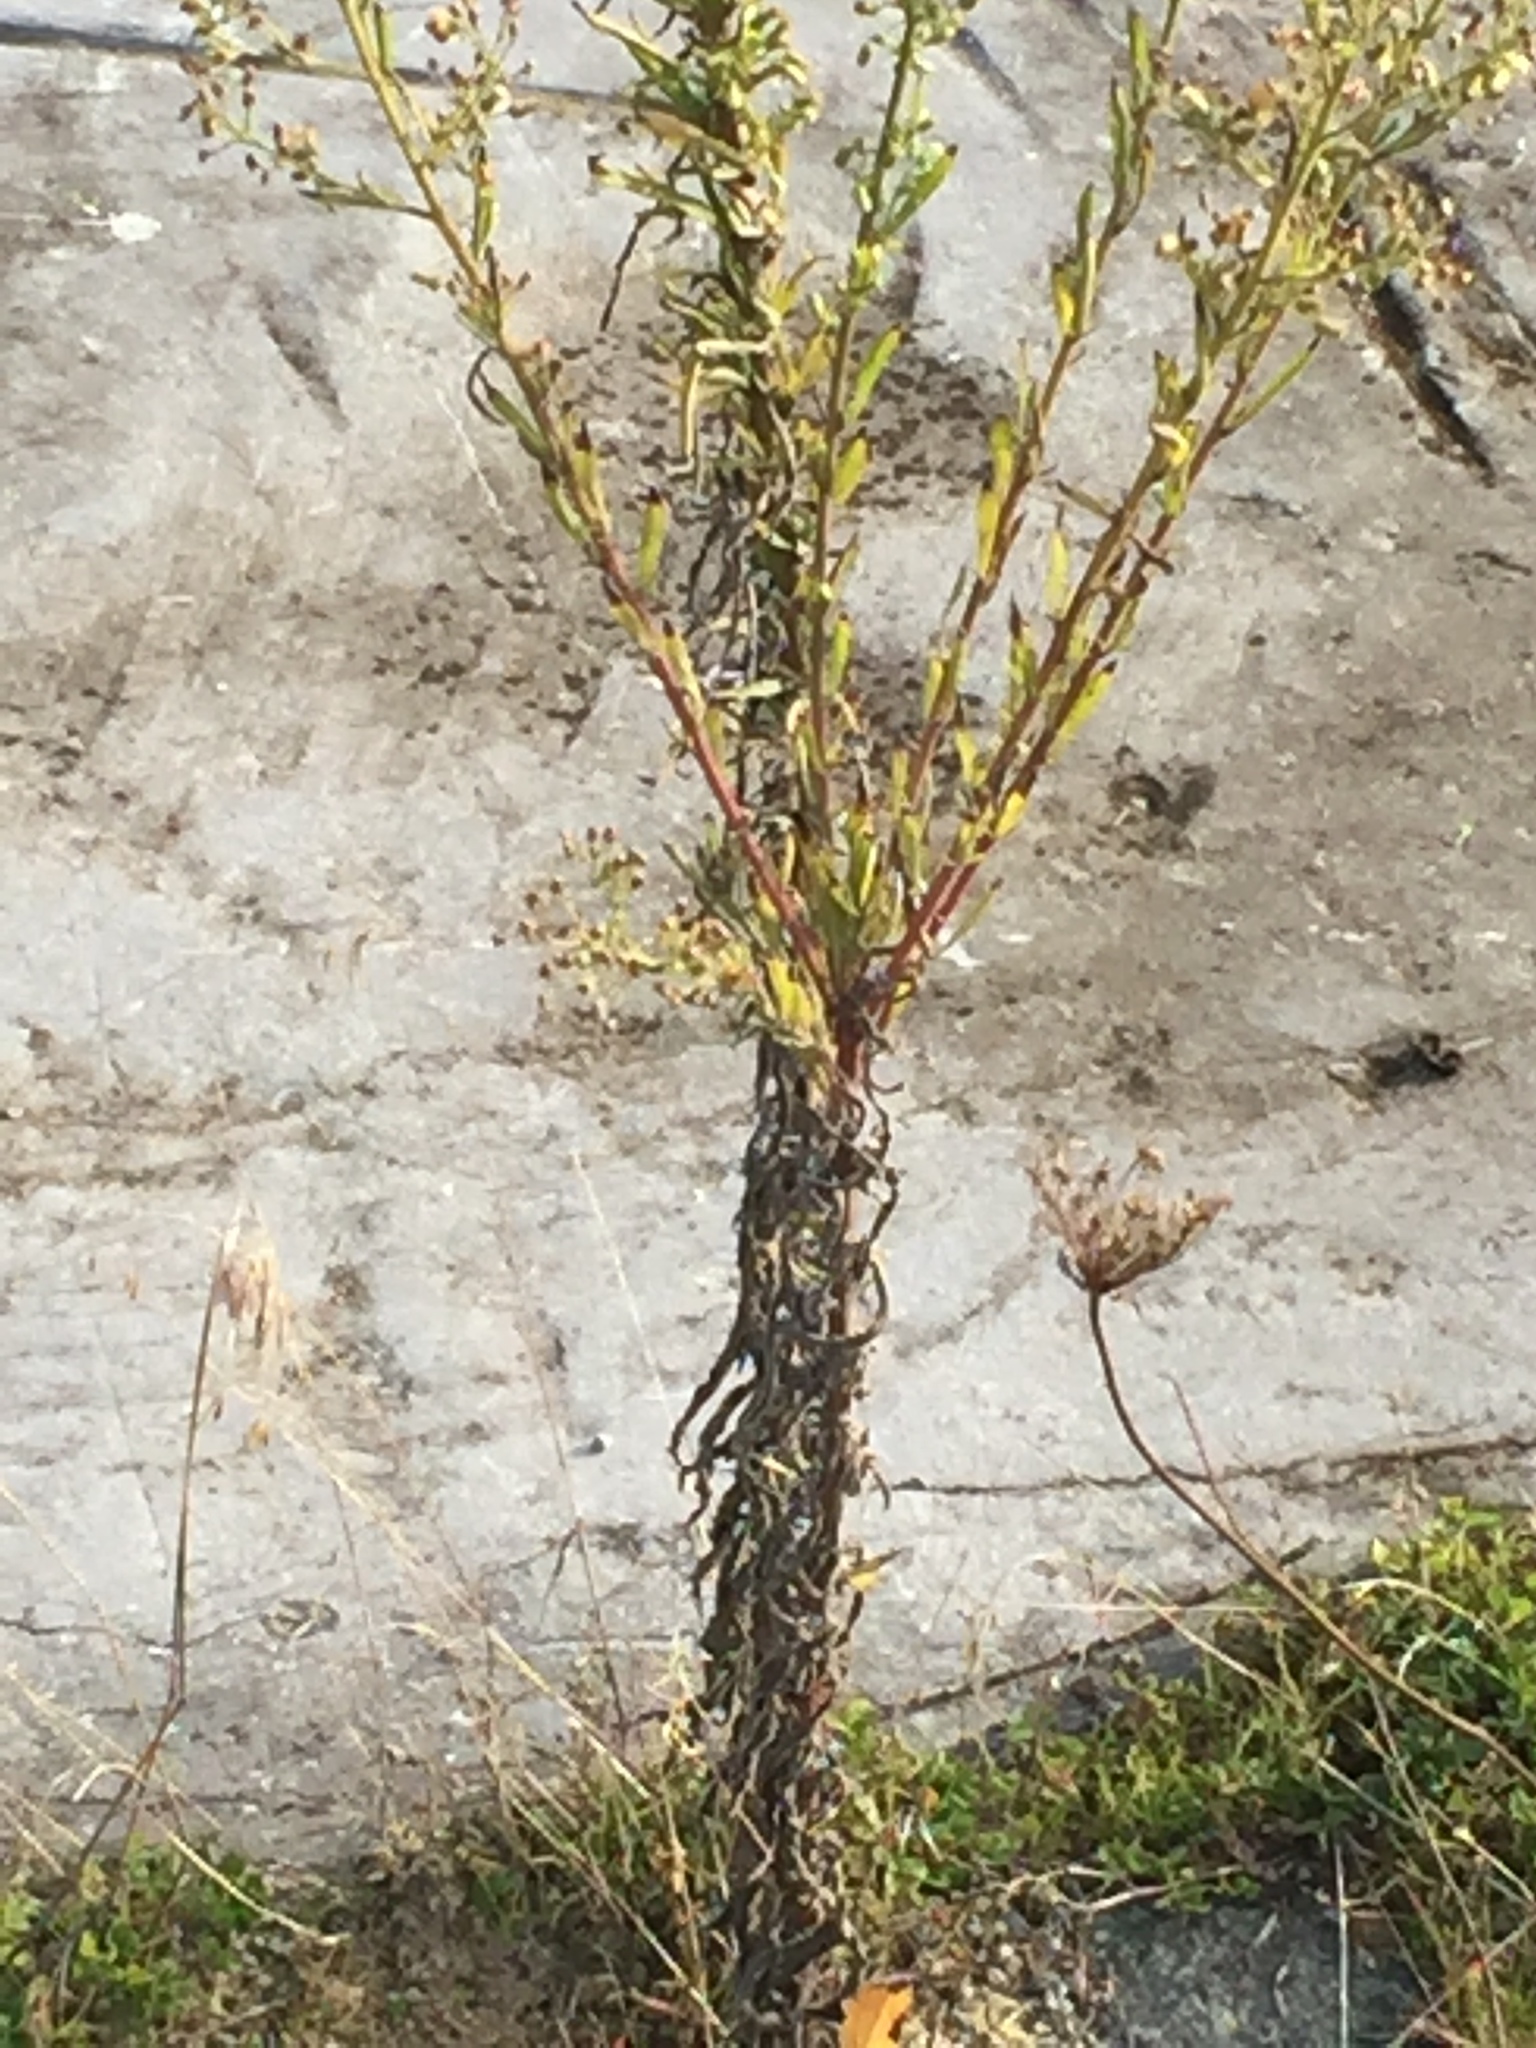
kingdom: Plantae
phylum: Tracheophyta
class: Magnoliopsida
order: Asterales
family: Asteraceae
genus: Erigeron
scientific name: Erigeron canadensis
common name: Canadian fleabane
